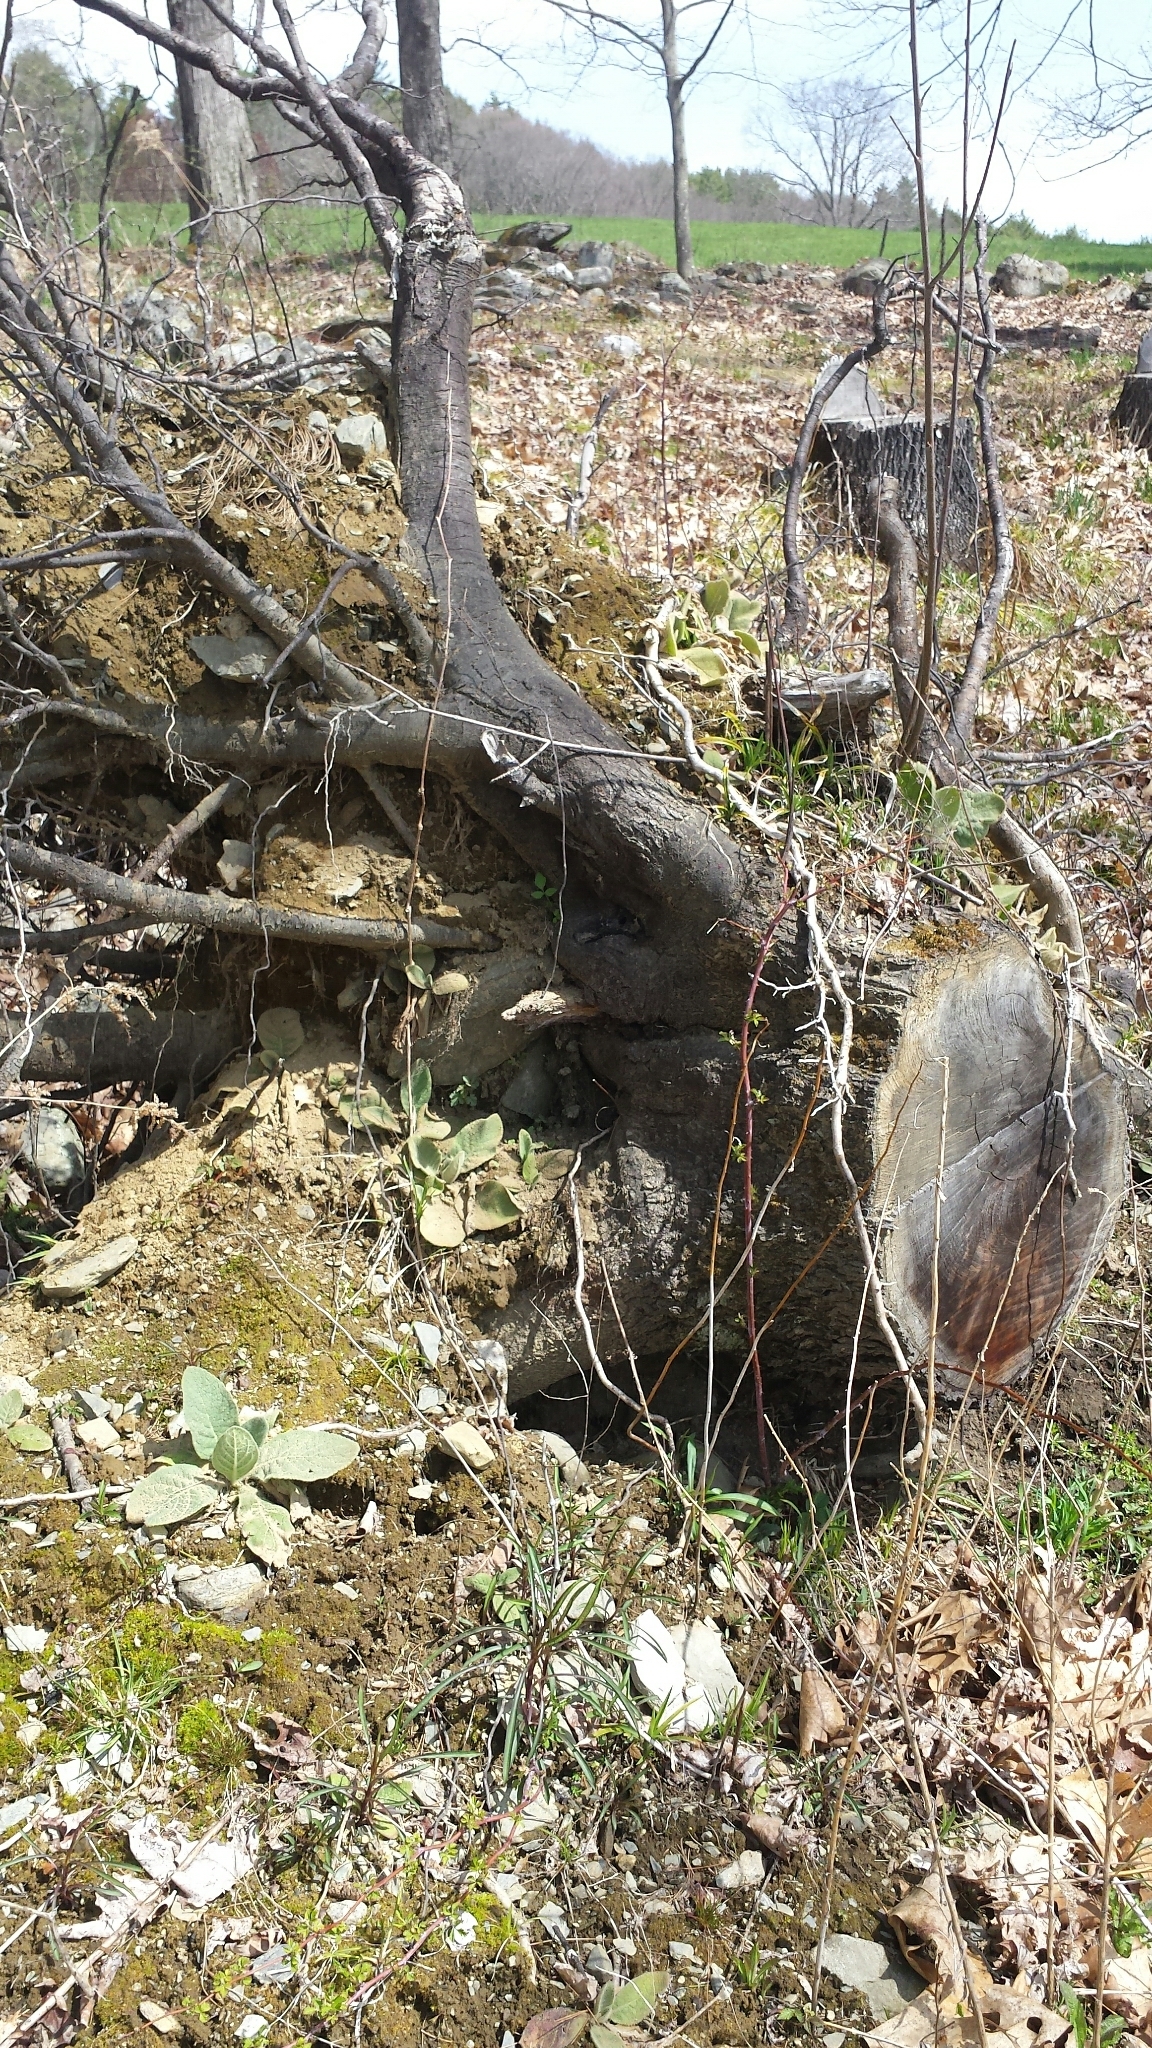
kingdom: Plantae
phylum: Tracheophyta
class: Magnoliopsida
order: Lamiales
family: Scrophulariaceae
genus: Verbascum
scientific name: Verbascum thapsus
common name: Common mullein
